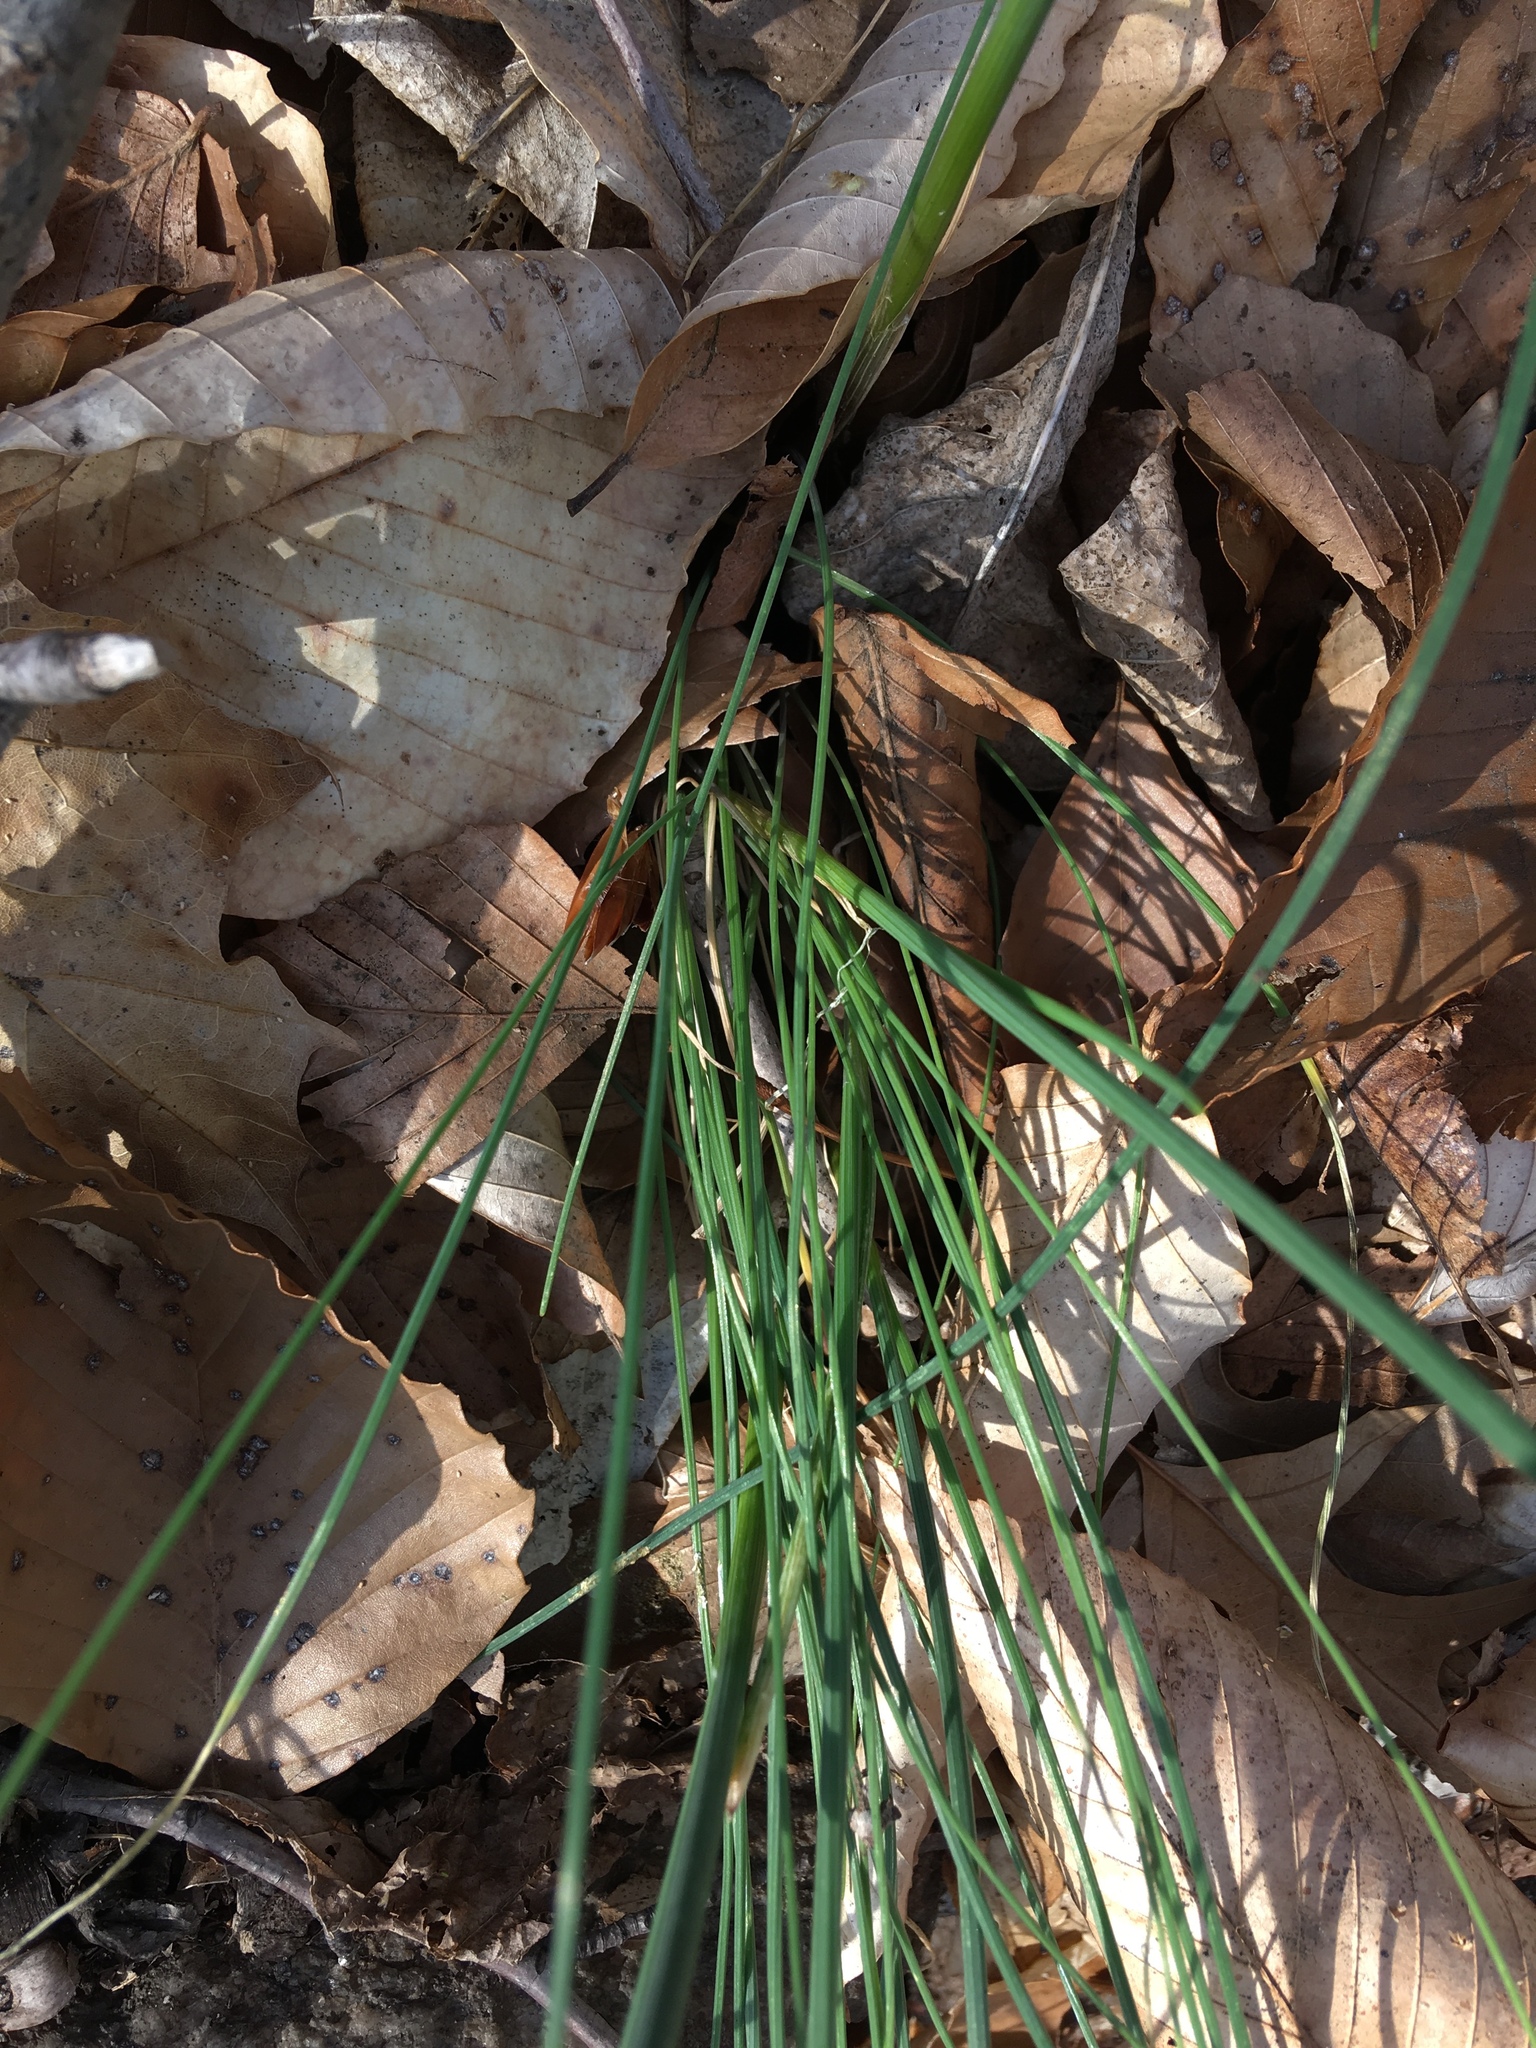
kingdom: Plantae
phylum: Tracheophyta
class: Liliopsida
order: Asparagales
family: Amaryllidaceae
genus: Allium
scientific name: Allium vineale
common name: Crow garlic
